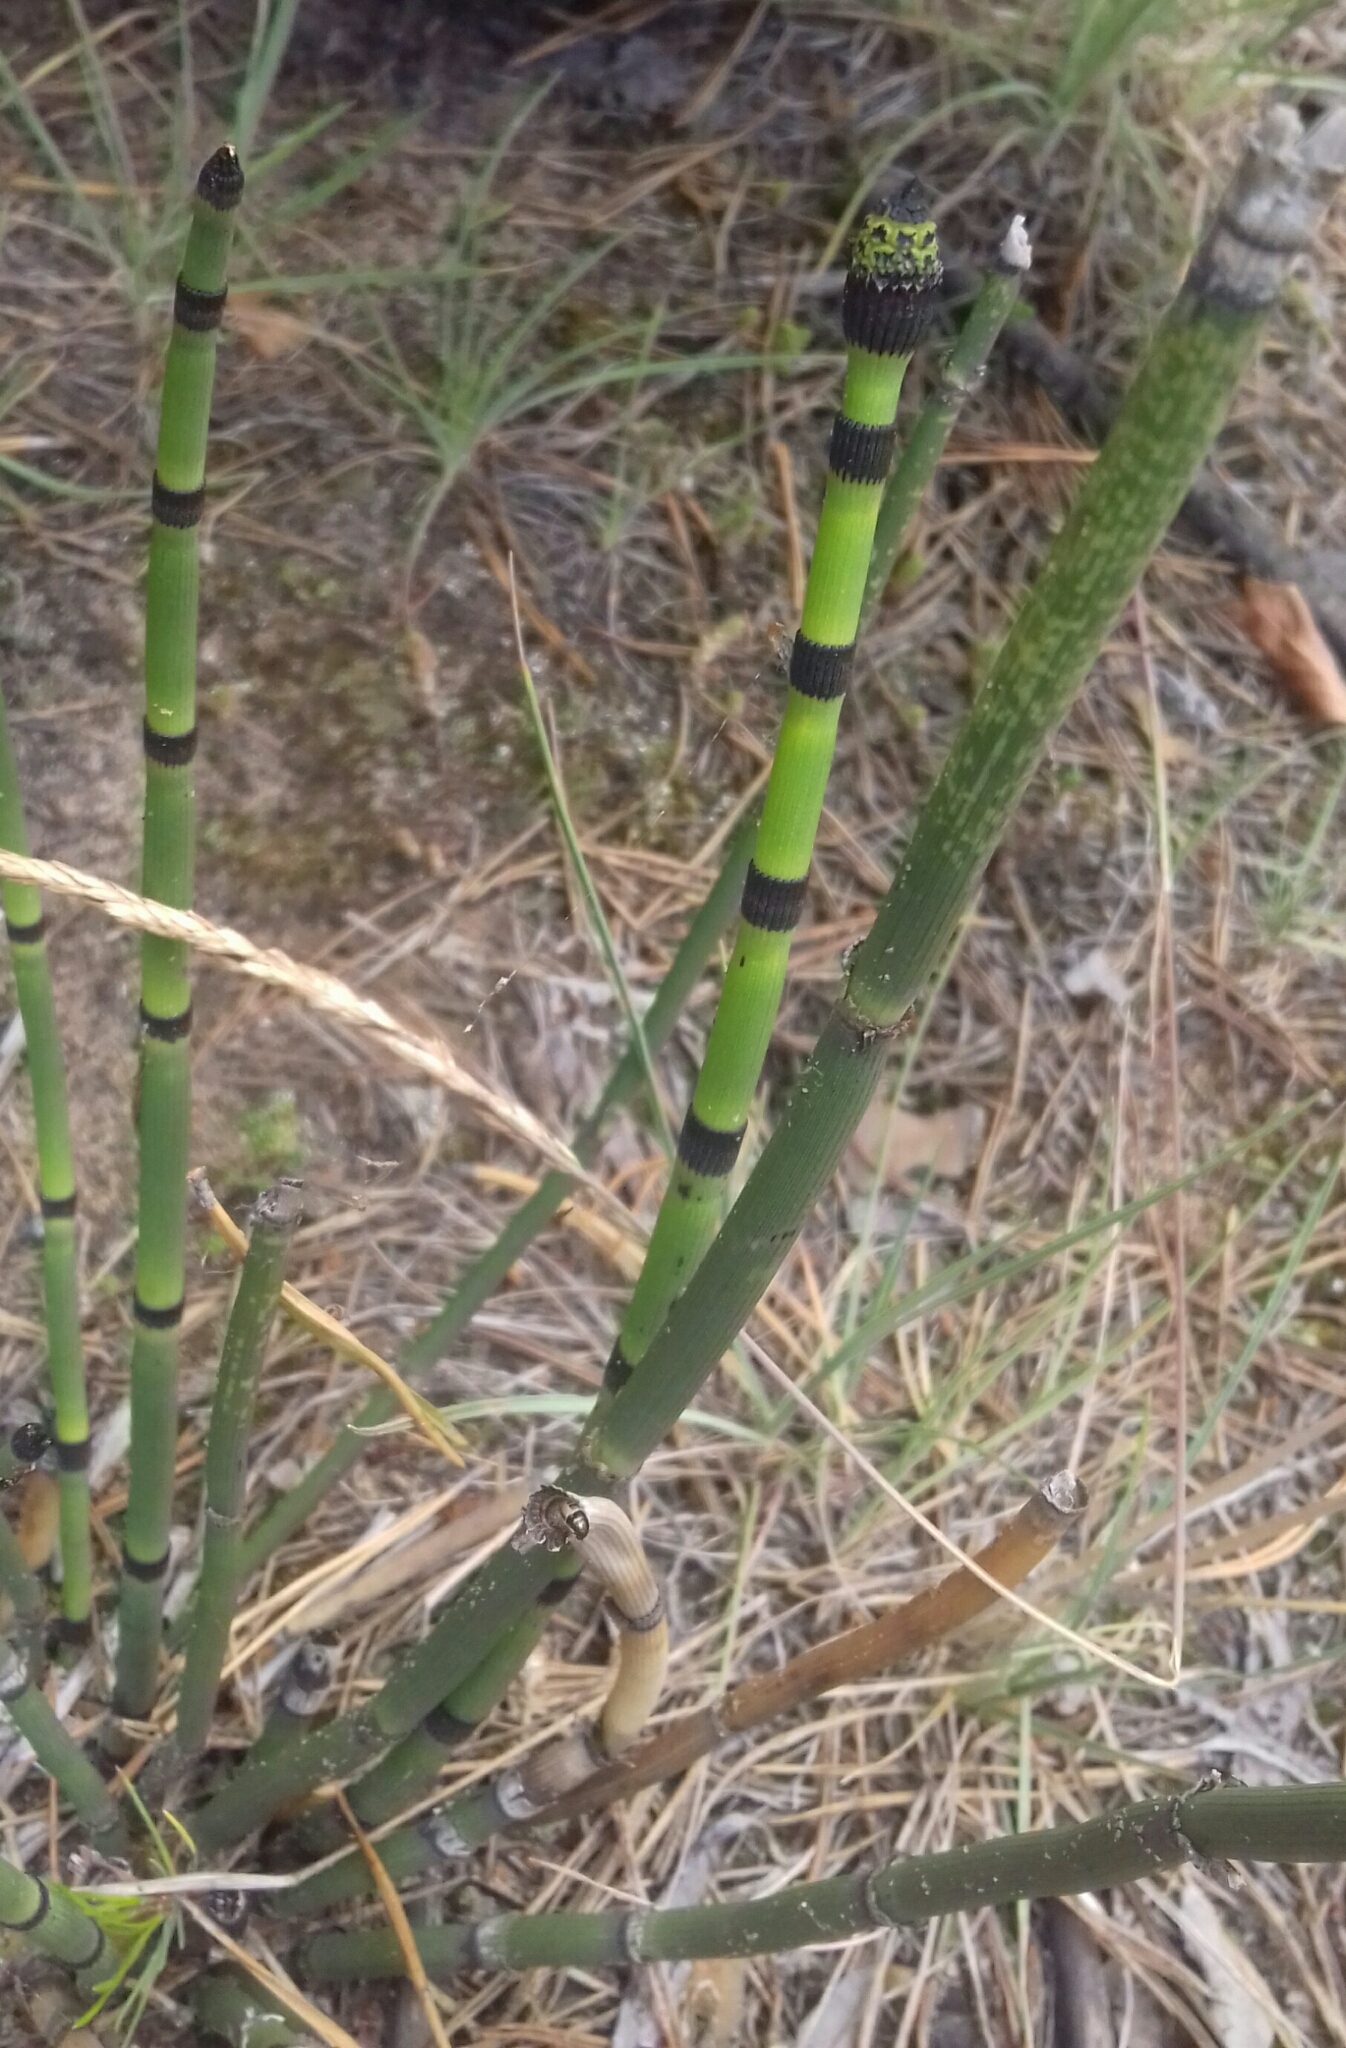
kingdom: Plantae
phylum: Tracheophyta
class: Polypodiopsida
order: Equisetales
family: Equisetaceae
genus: Equisetum
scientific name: Equisetum hyemale
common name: Rough horsetail
